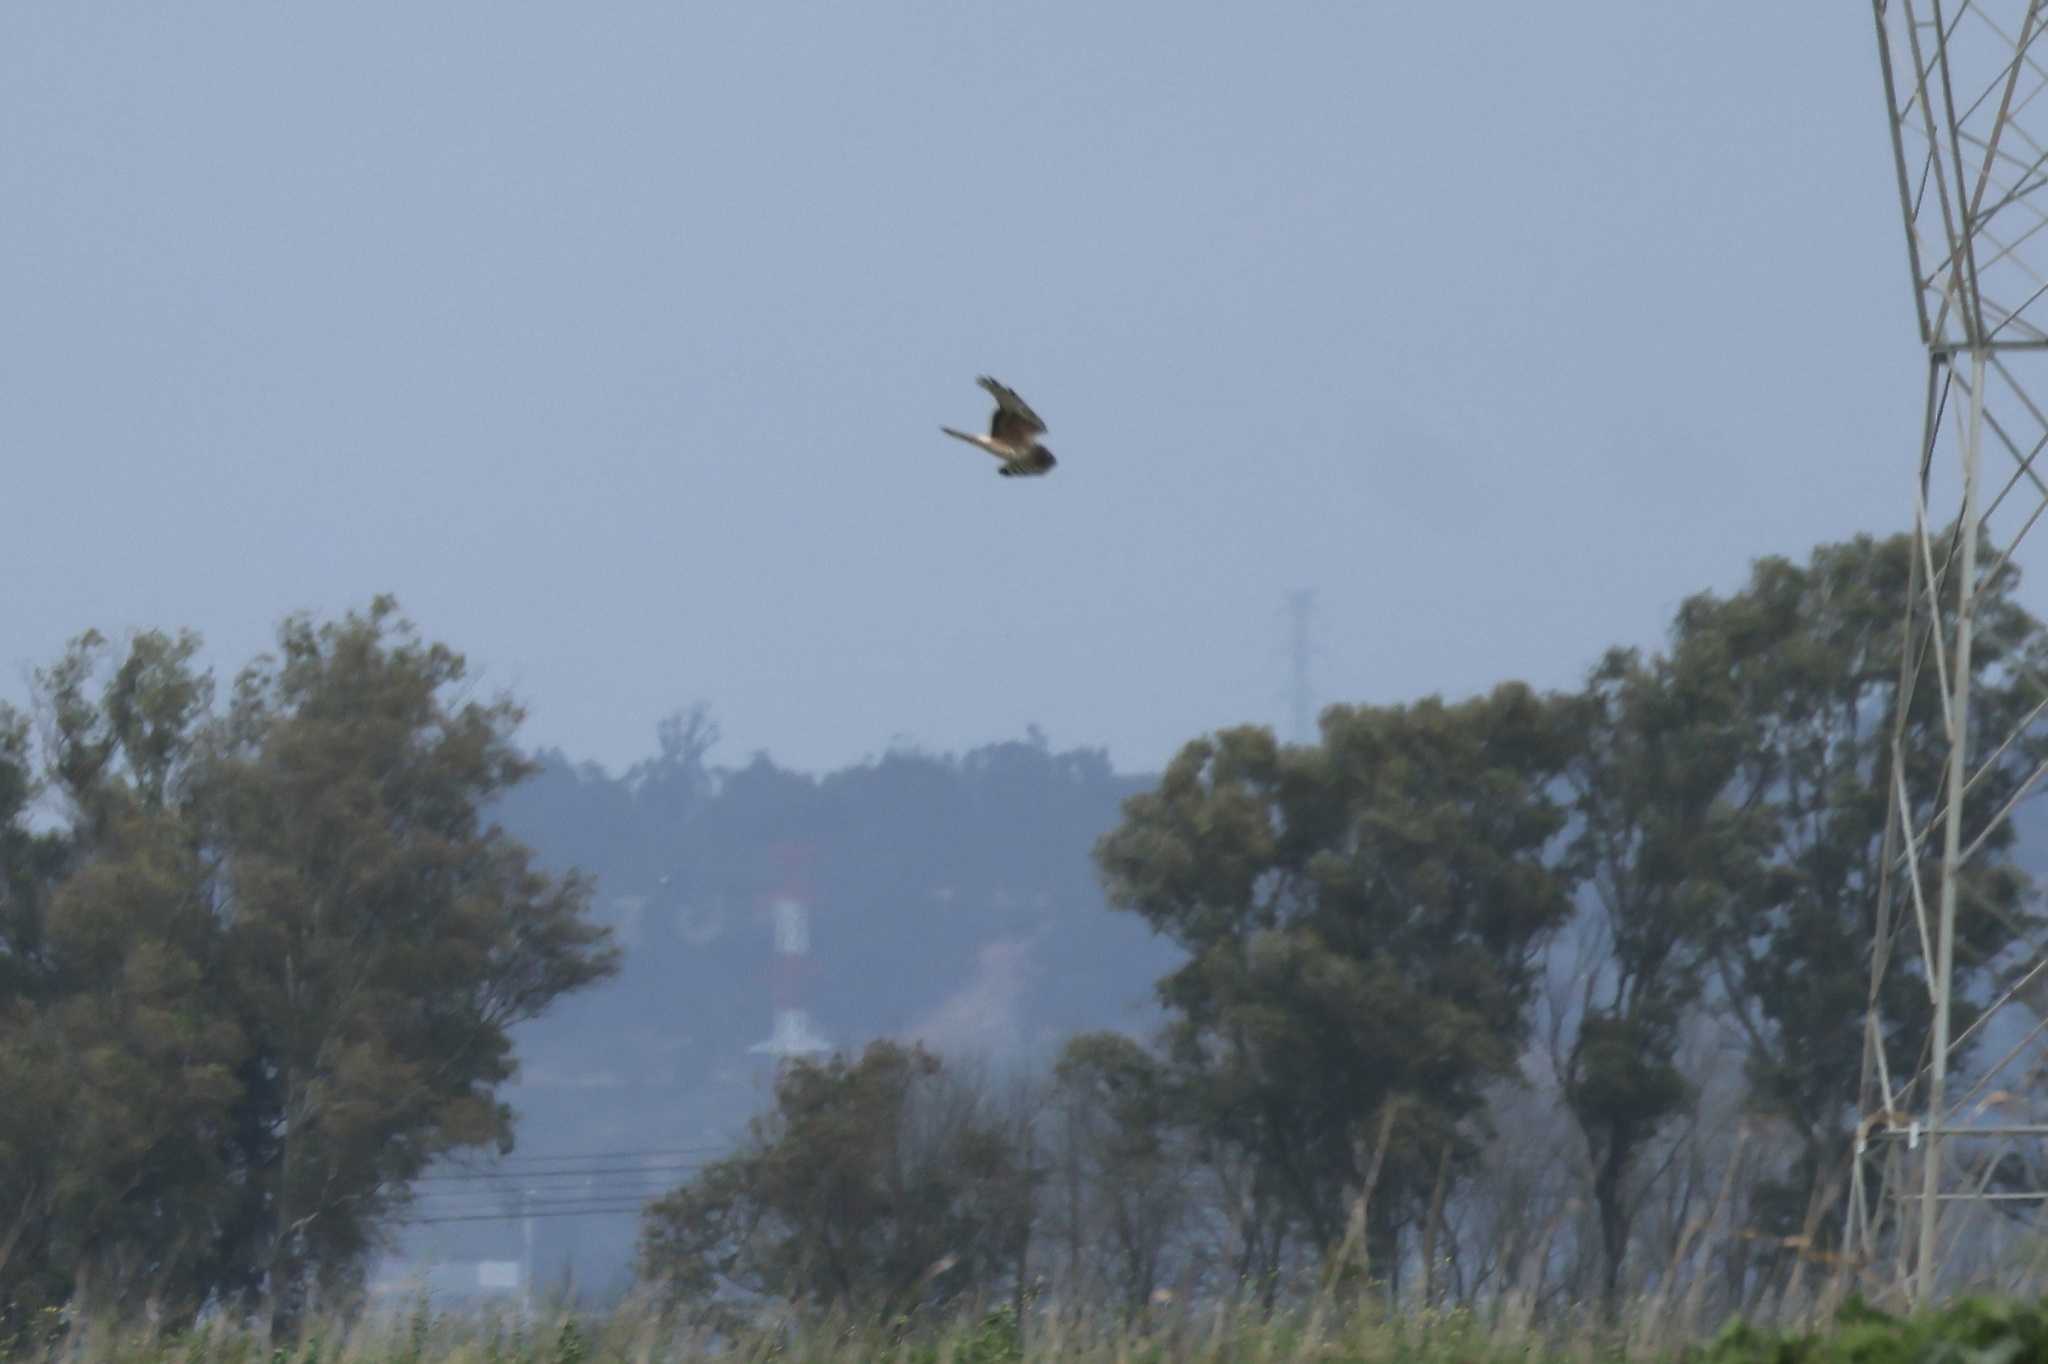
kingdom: Animalia
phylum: Chordata
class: Aves
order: Accipitriformes
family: Accipitridae
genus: Circus
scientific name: Circus cyaneus
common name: Hen harrier
